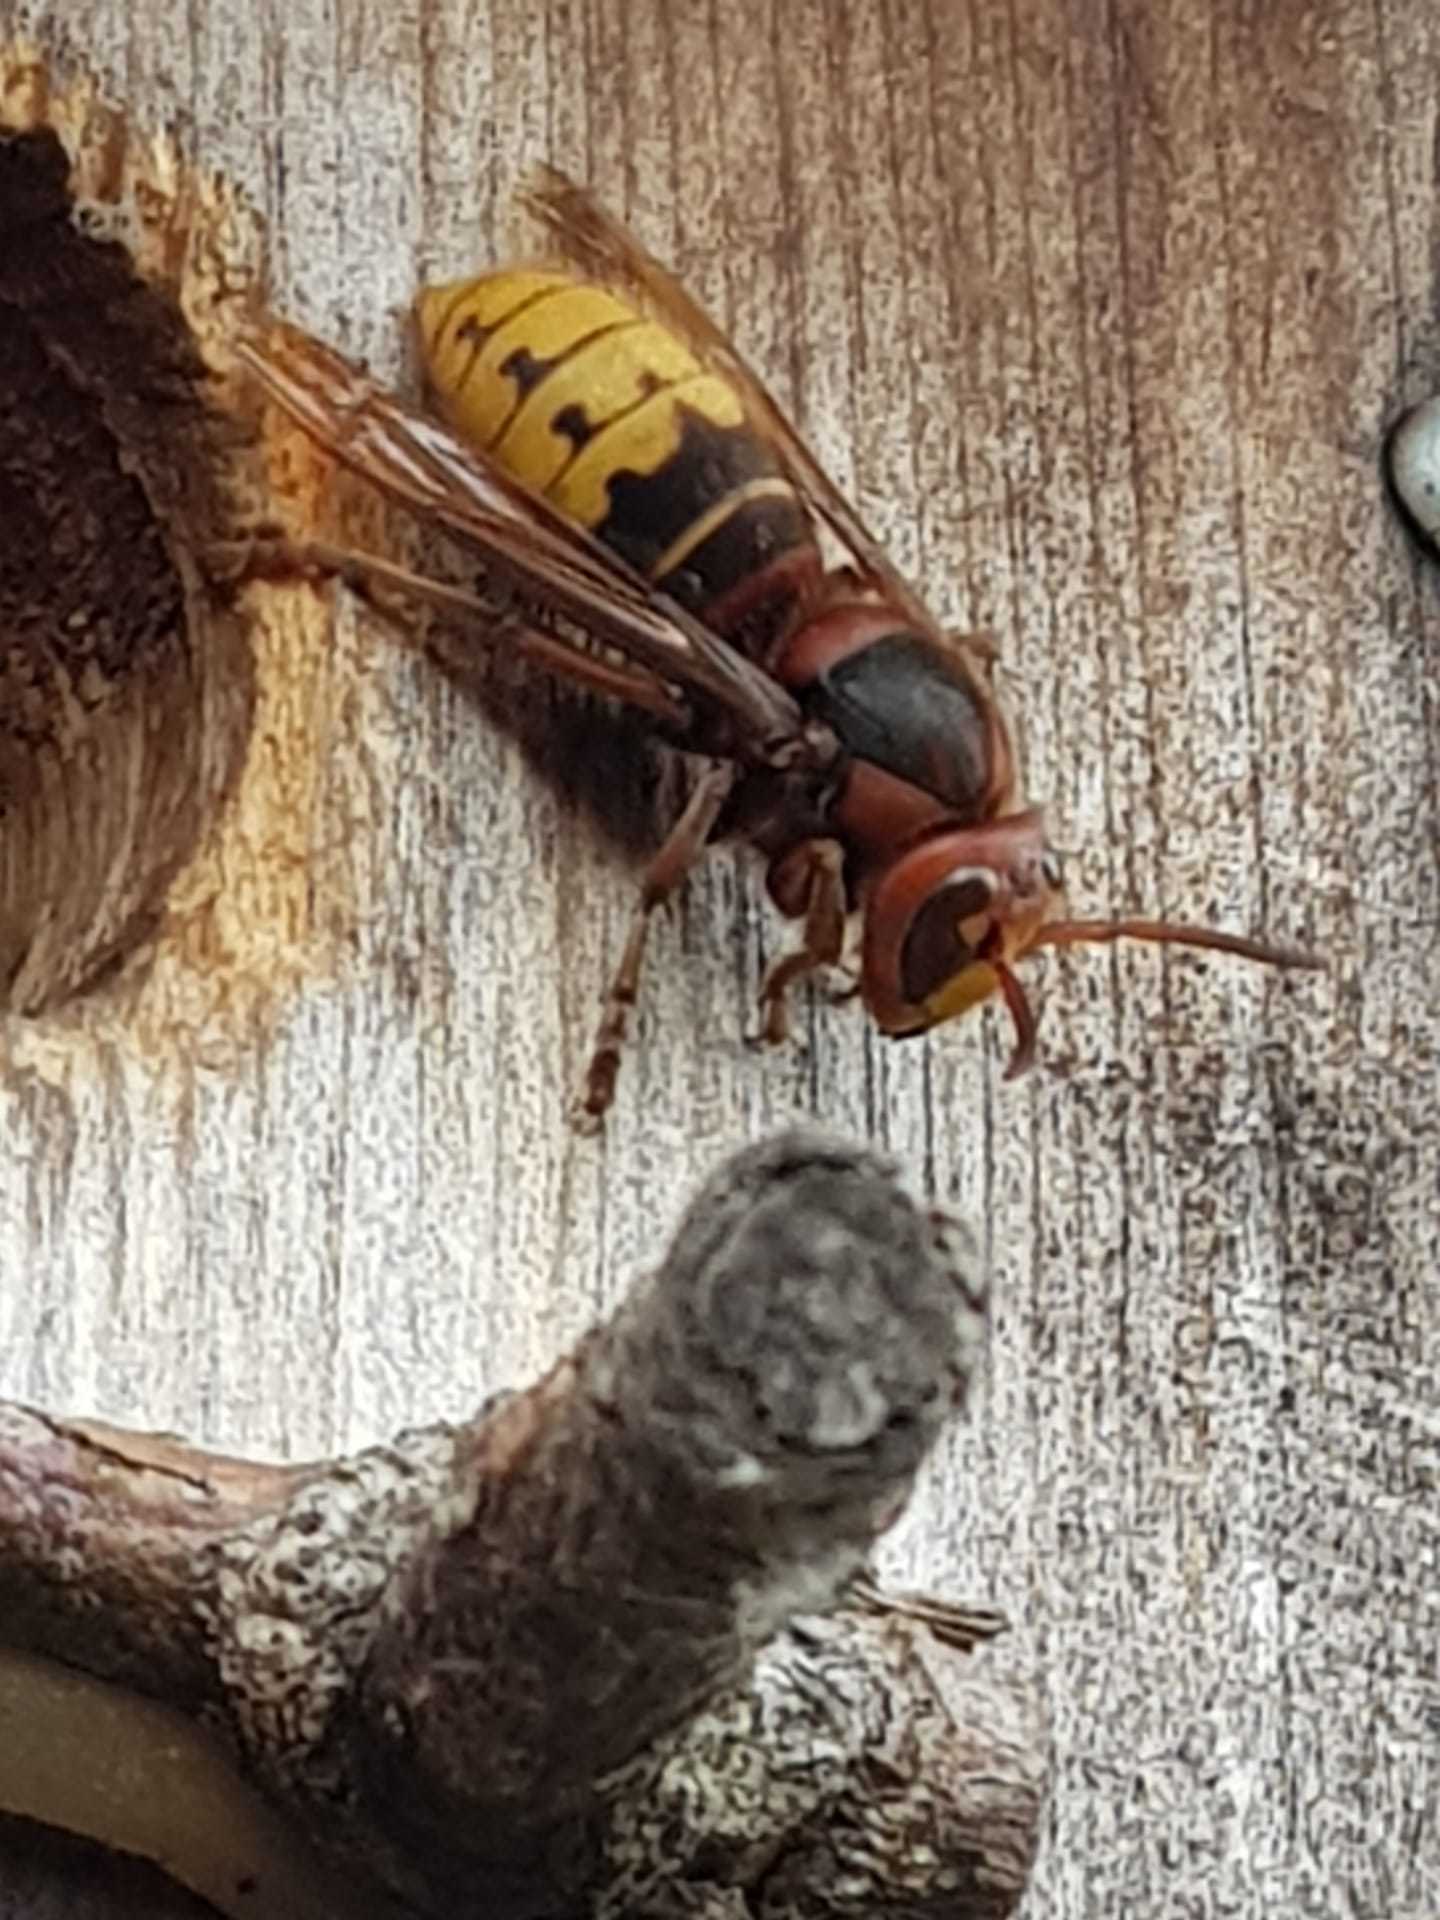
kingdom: Animalia
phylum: Arthropoda
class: Insecta
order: Hymenoptera
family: Vespidae
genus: Vespa
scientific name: Vespa crabro
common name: Hornet
